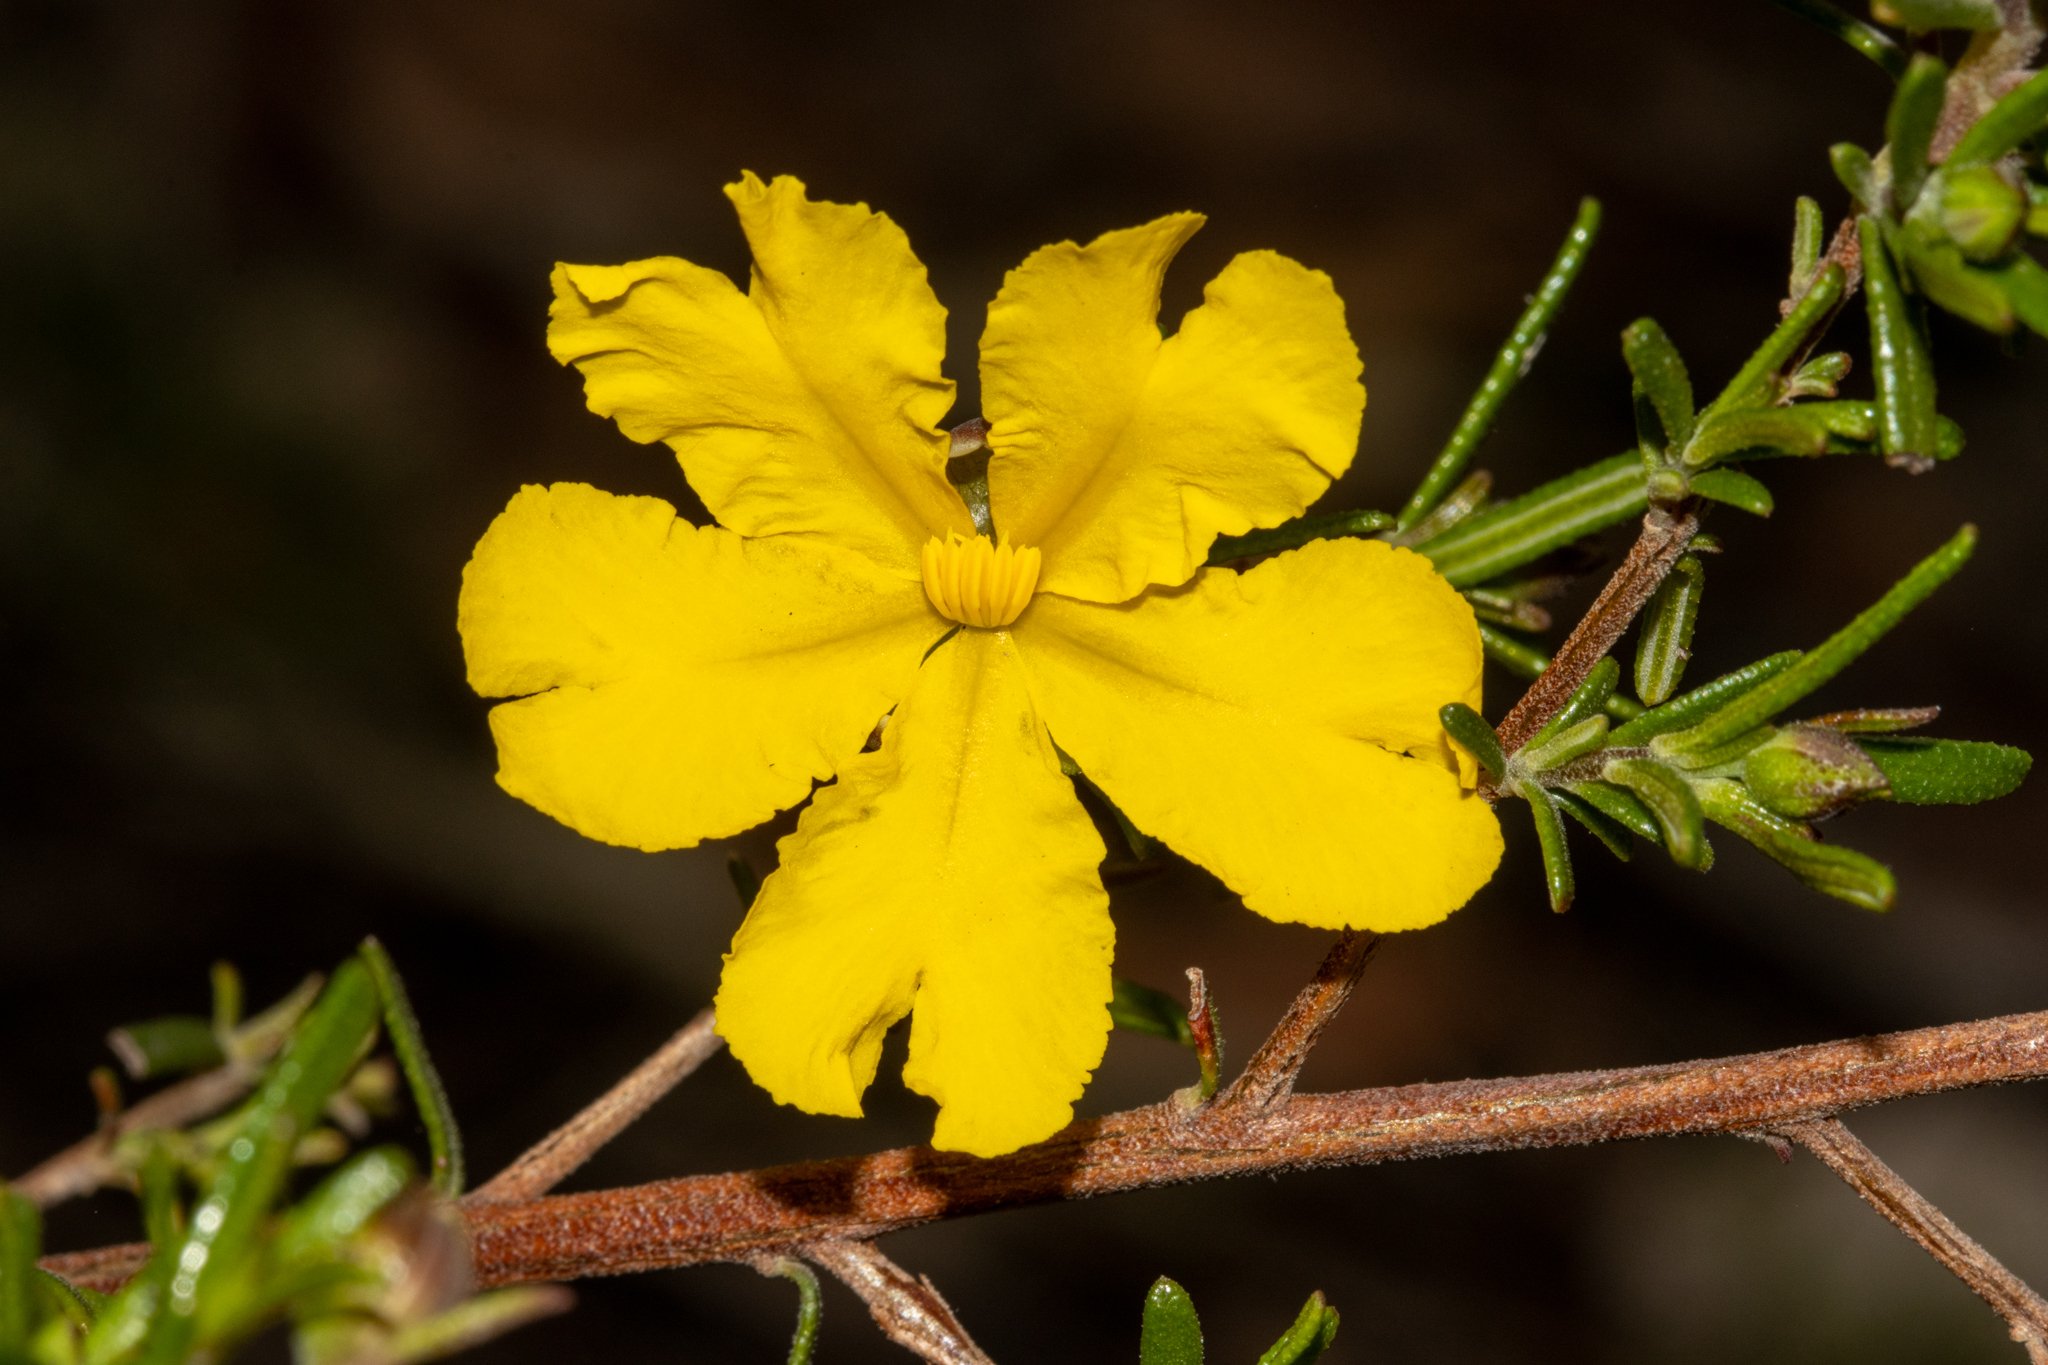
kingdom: Plantae
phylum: Tracheophyta
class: Magnoliopsida
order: Dilleniales
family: Dilleniaceae
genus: Hibbertia
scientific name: Hibbertia hypericoides
